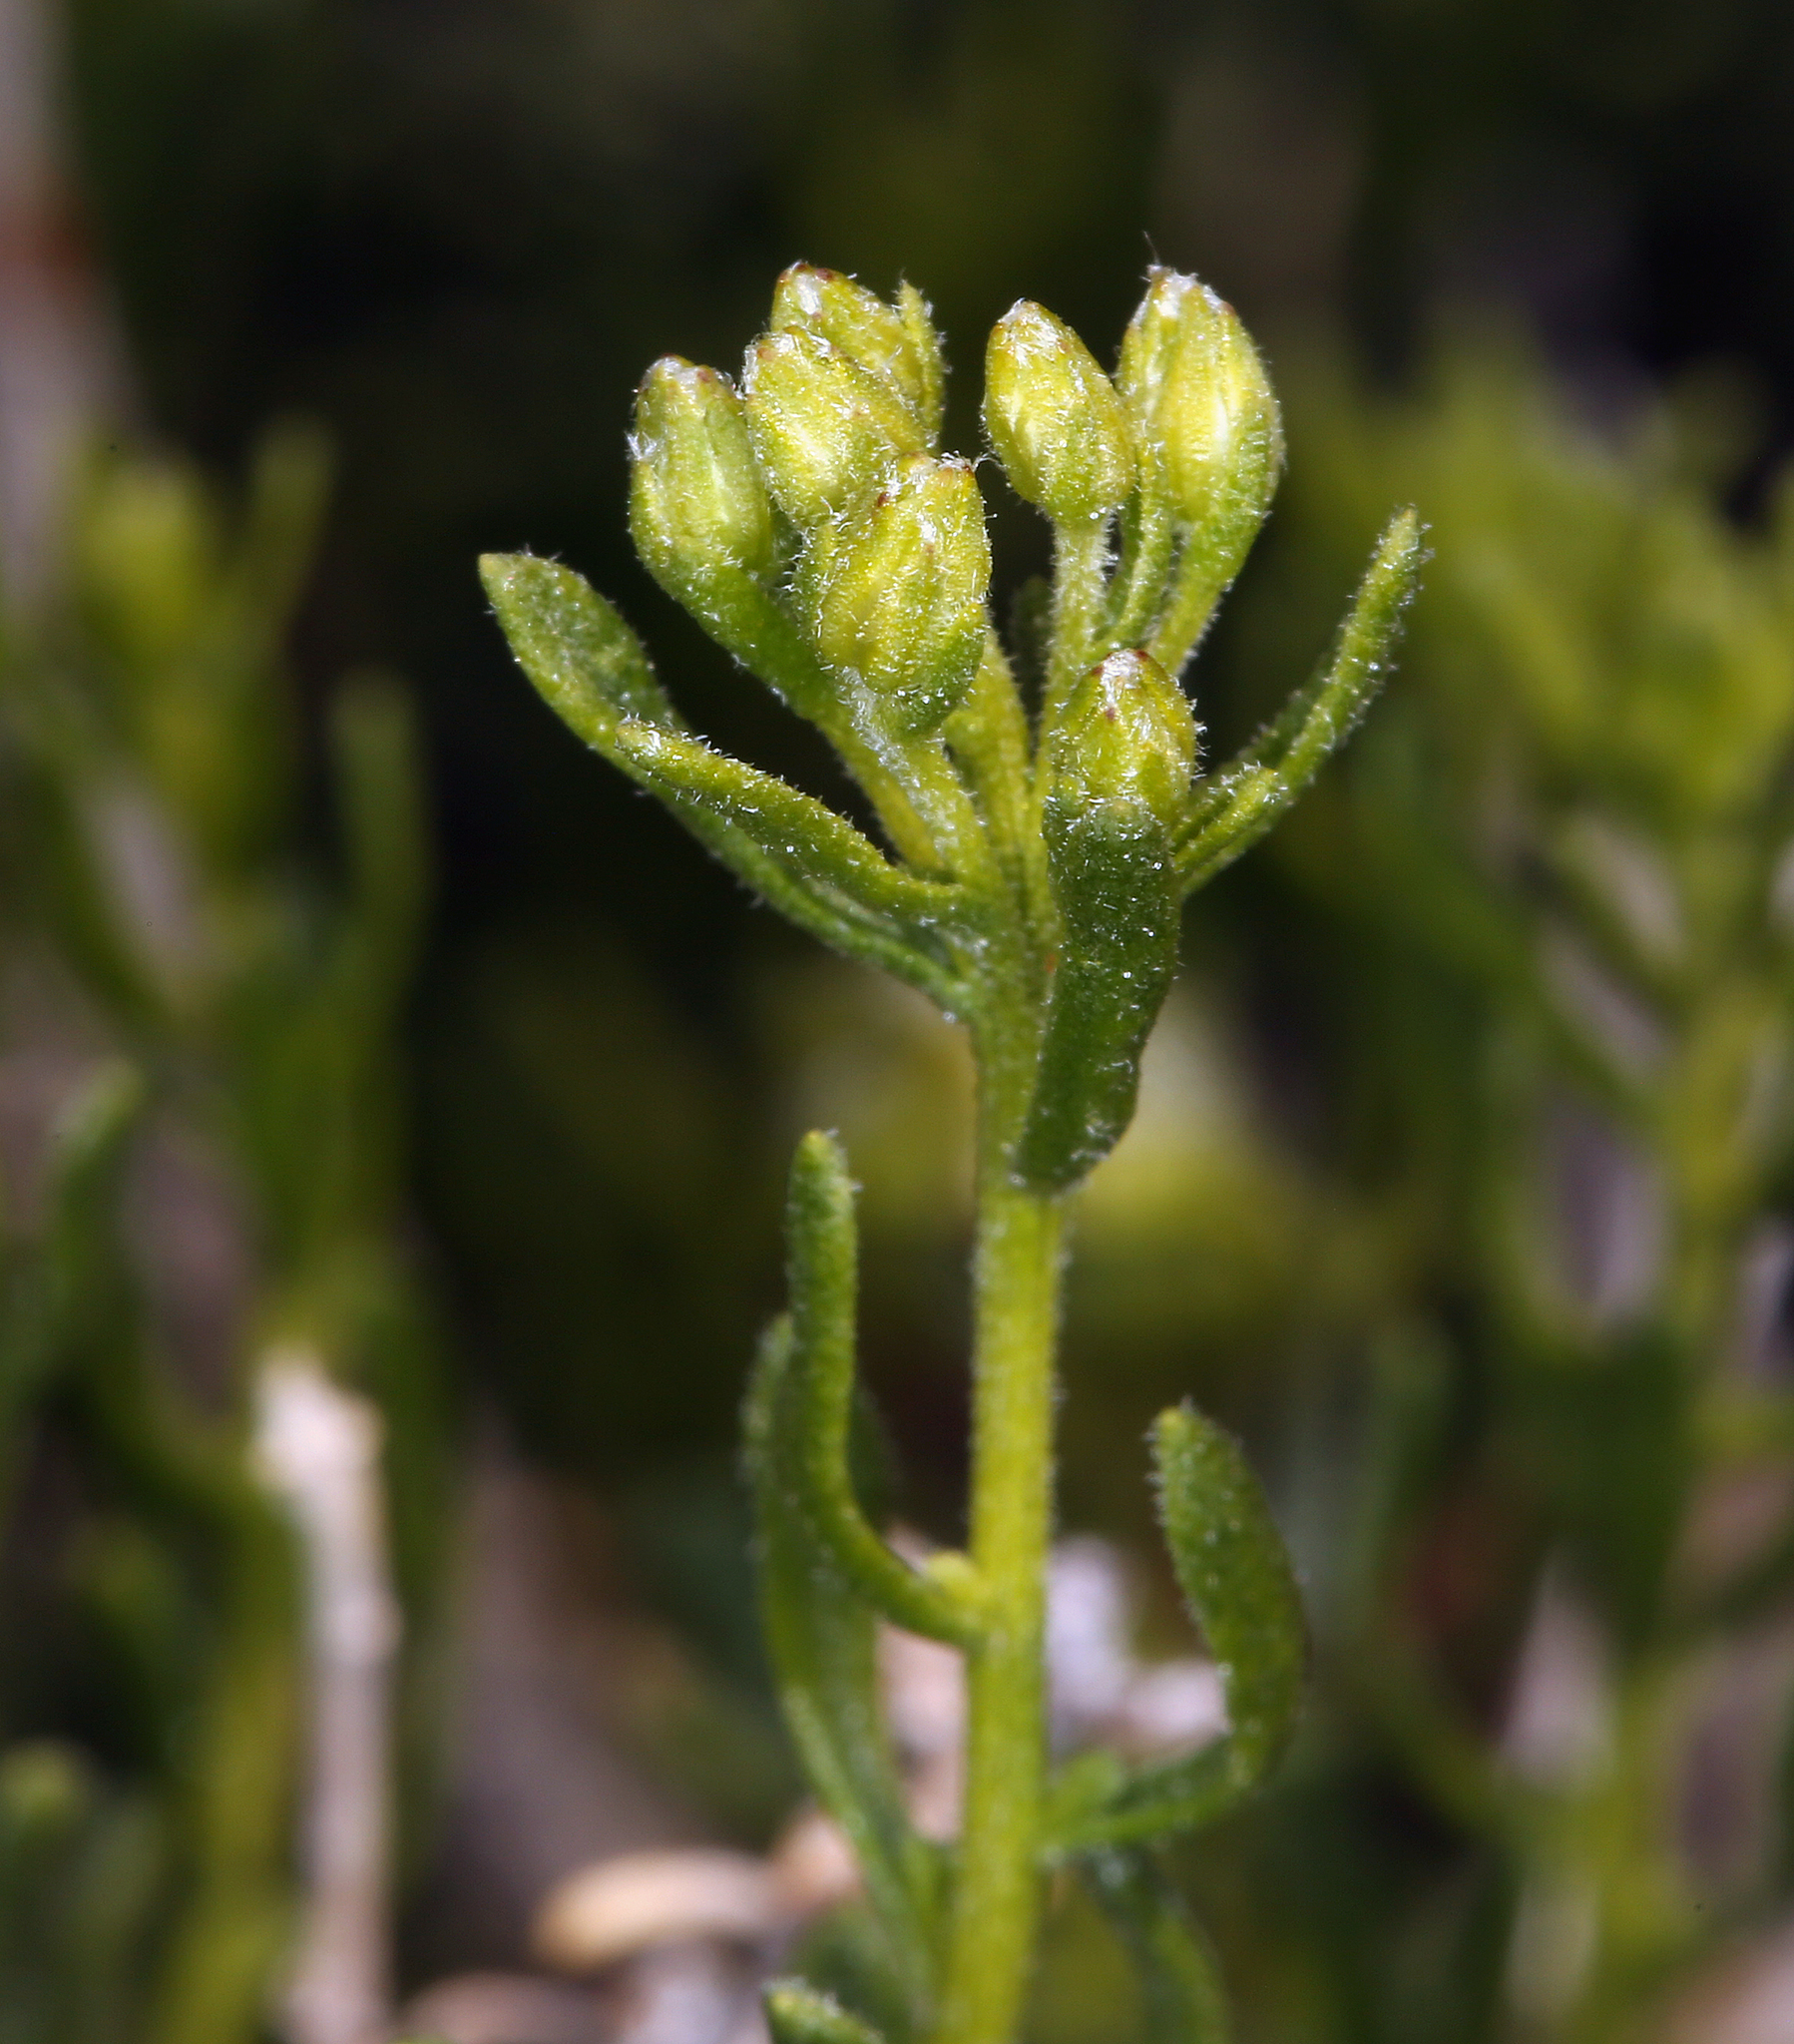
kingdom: Plantae
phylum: Tracheophyta
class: Magnoliopsida
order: Asterales
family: Asteraceae
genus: Ericameria
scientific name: Ericameria cooperi
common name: Cooper's goldenbush
